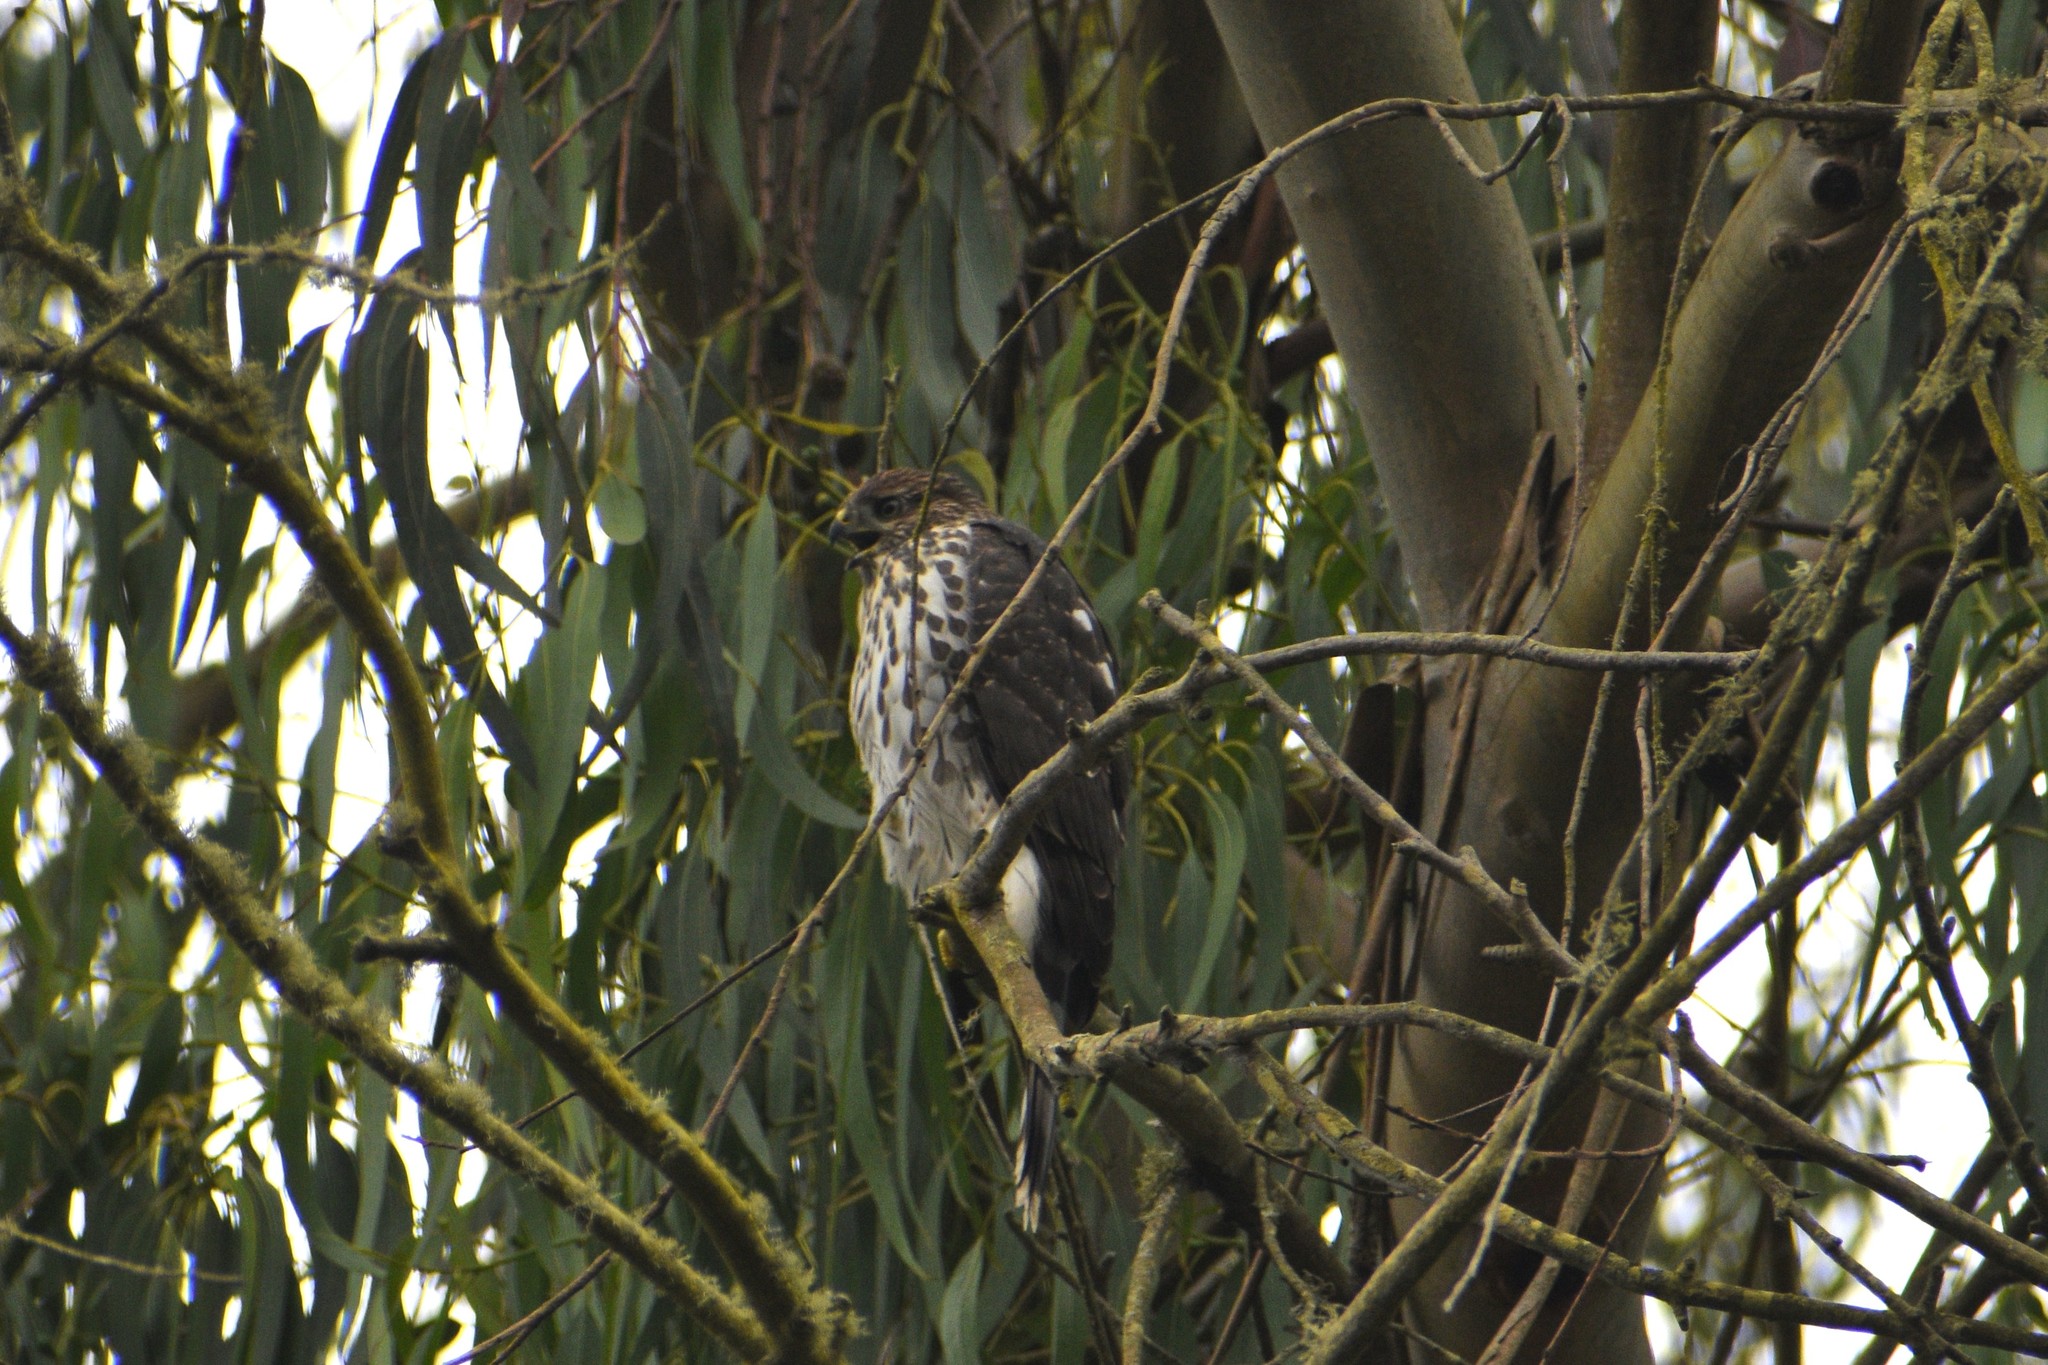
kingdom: Animalia
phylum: Chordata
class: Aves
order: Accipitriformes
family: Accipitridae
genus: Accipiter
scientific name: Accipiter cooperii
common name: Cooper's hawk
